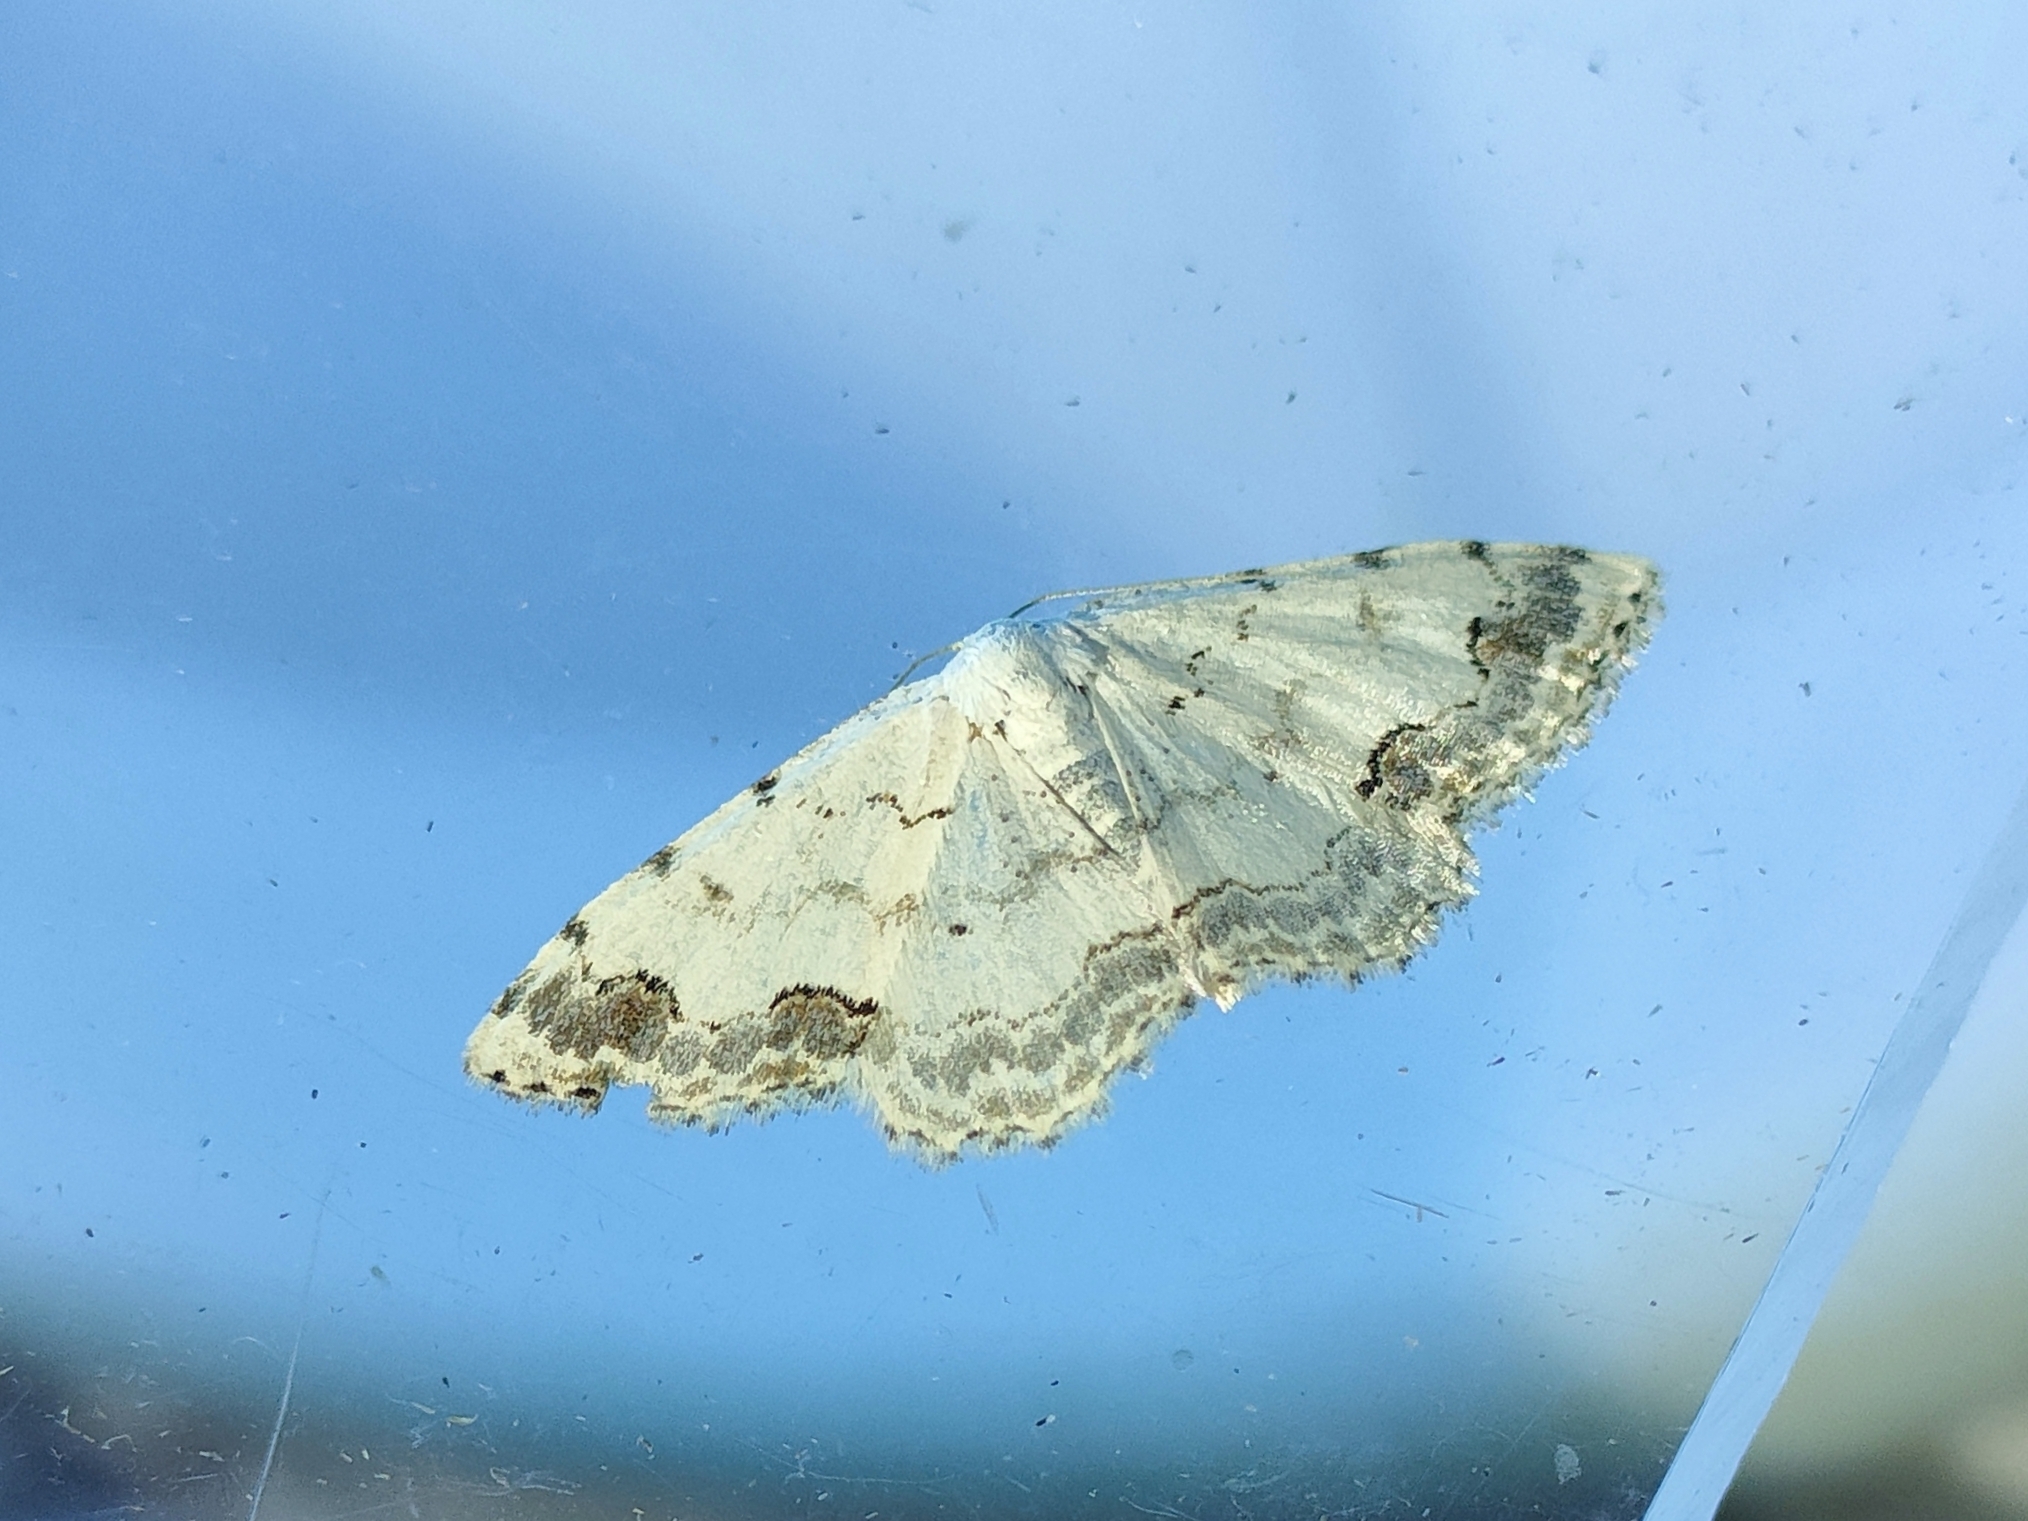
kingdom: Animalia
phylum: Arthropoda
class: Insecta
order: Lepidoptera
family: Geometridae
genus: Scopula
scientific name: Scopula decorata
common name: Middle lace border
